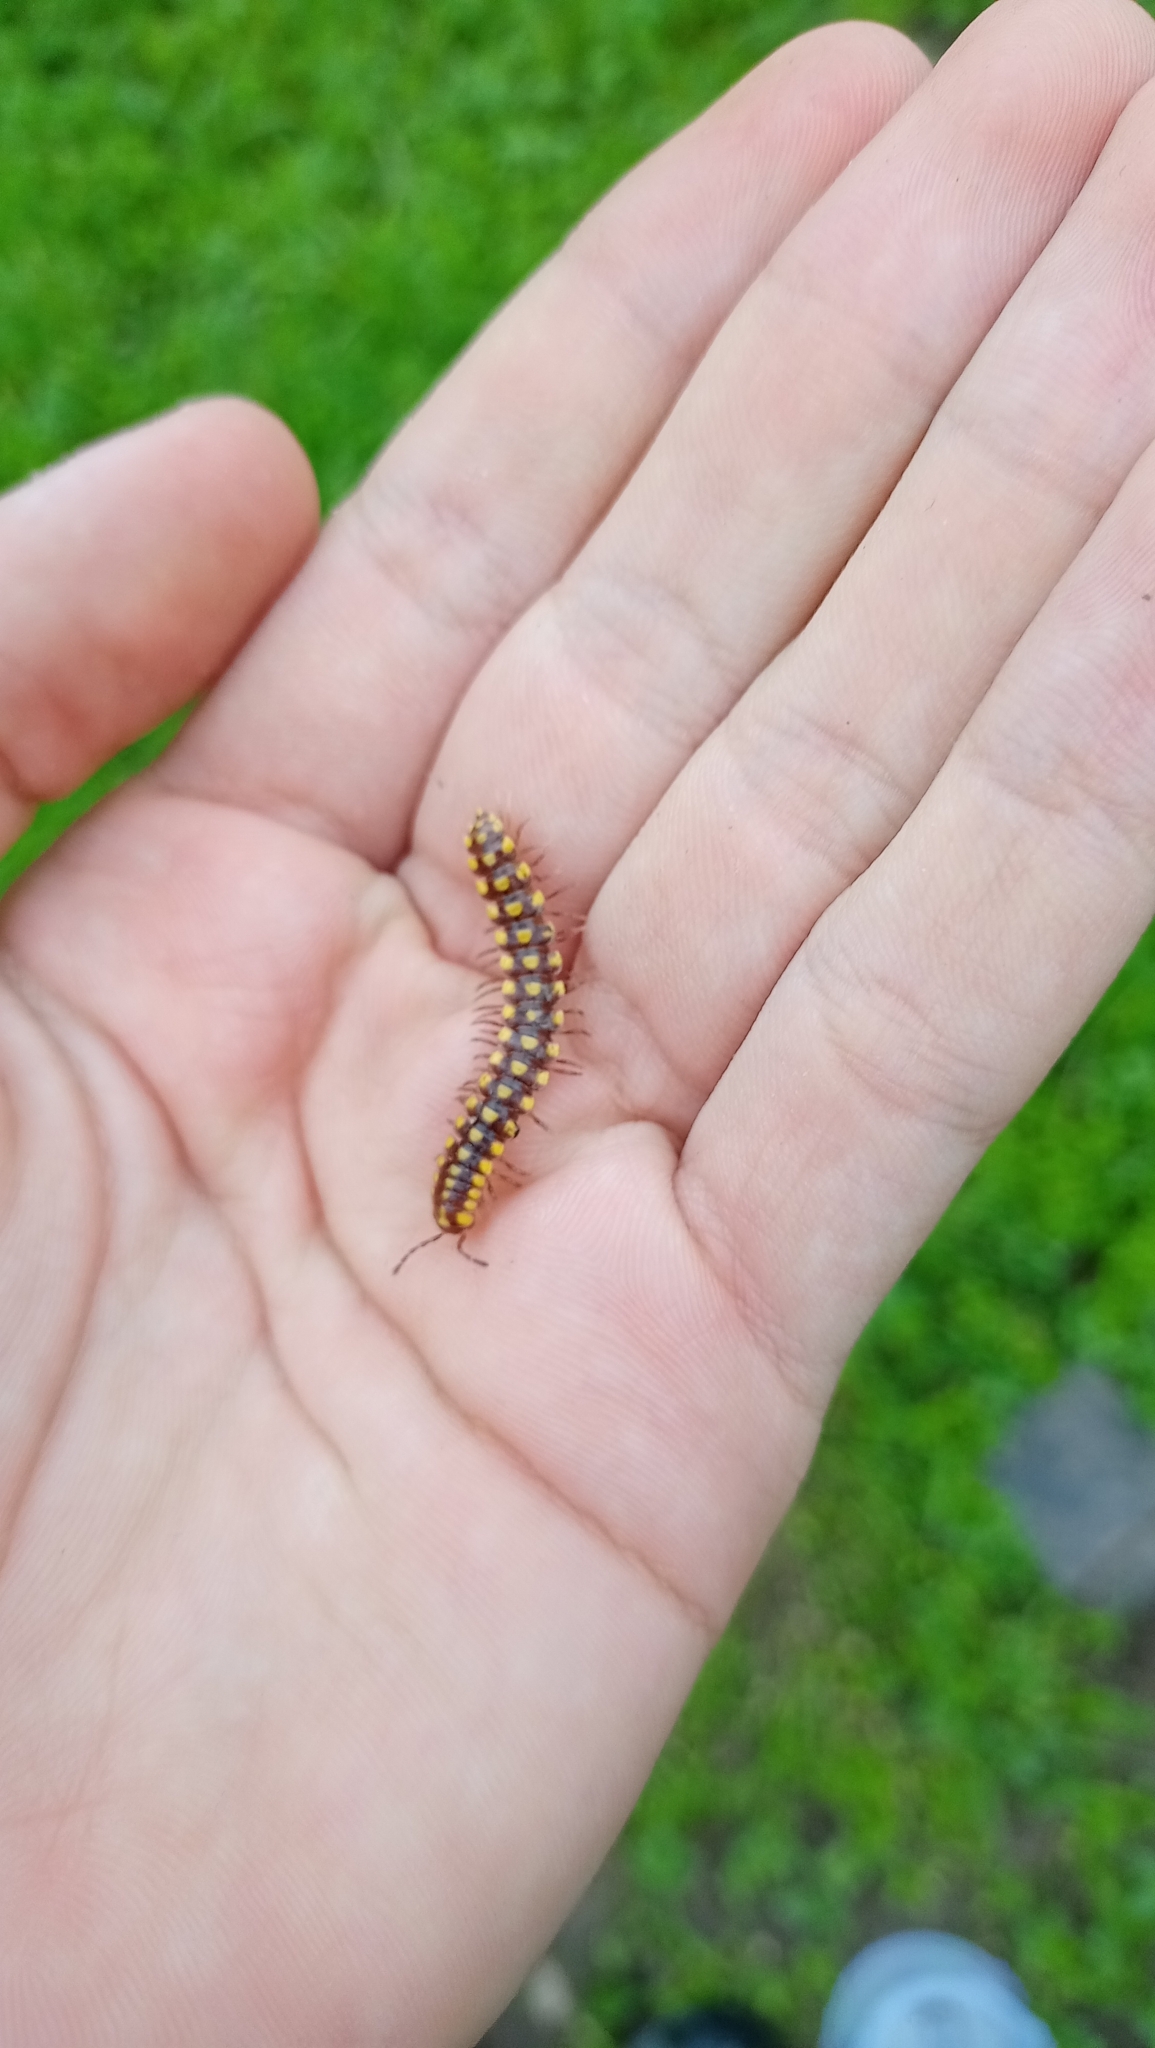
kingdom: Animalia
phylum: Arthropoda
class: Diplopoda
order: Polydesmida
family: Xystodesmidae
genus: Melaphe
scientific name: Melaphe vestita
